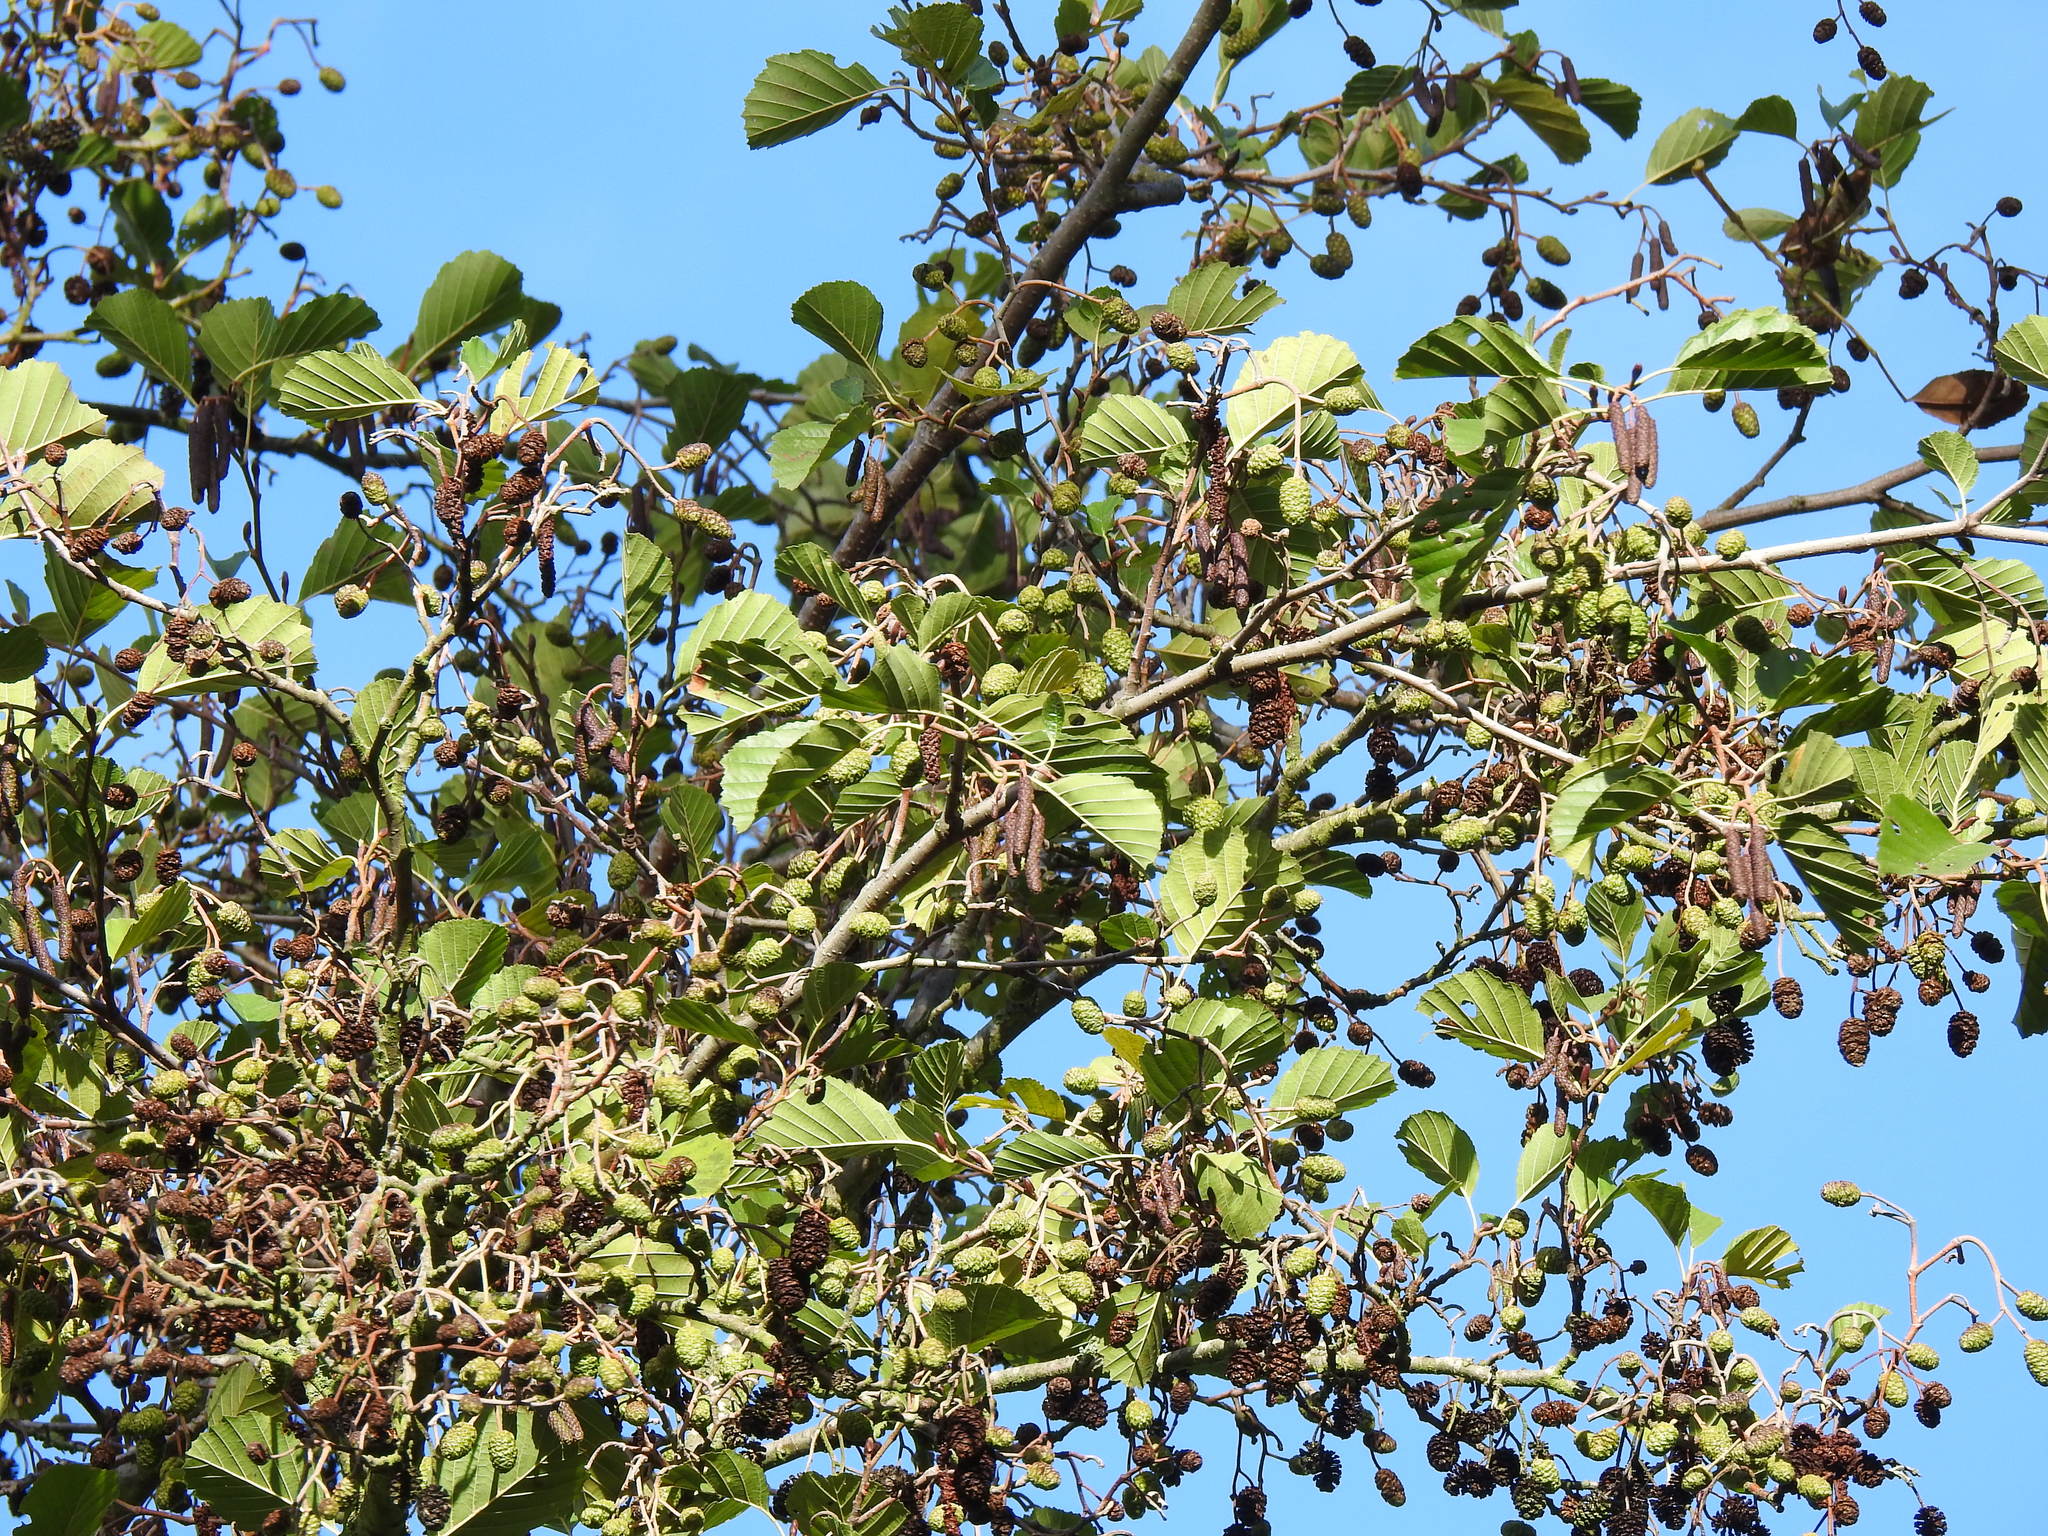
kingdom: Plantae
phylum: Tracheophyta
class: Magnoliopsida
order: Fagales
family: Betulaceae
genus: Alnus
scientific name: Alnus glutinosa
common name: Black alder
